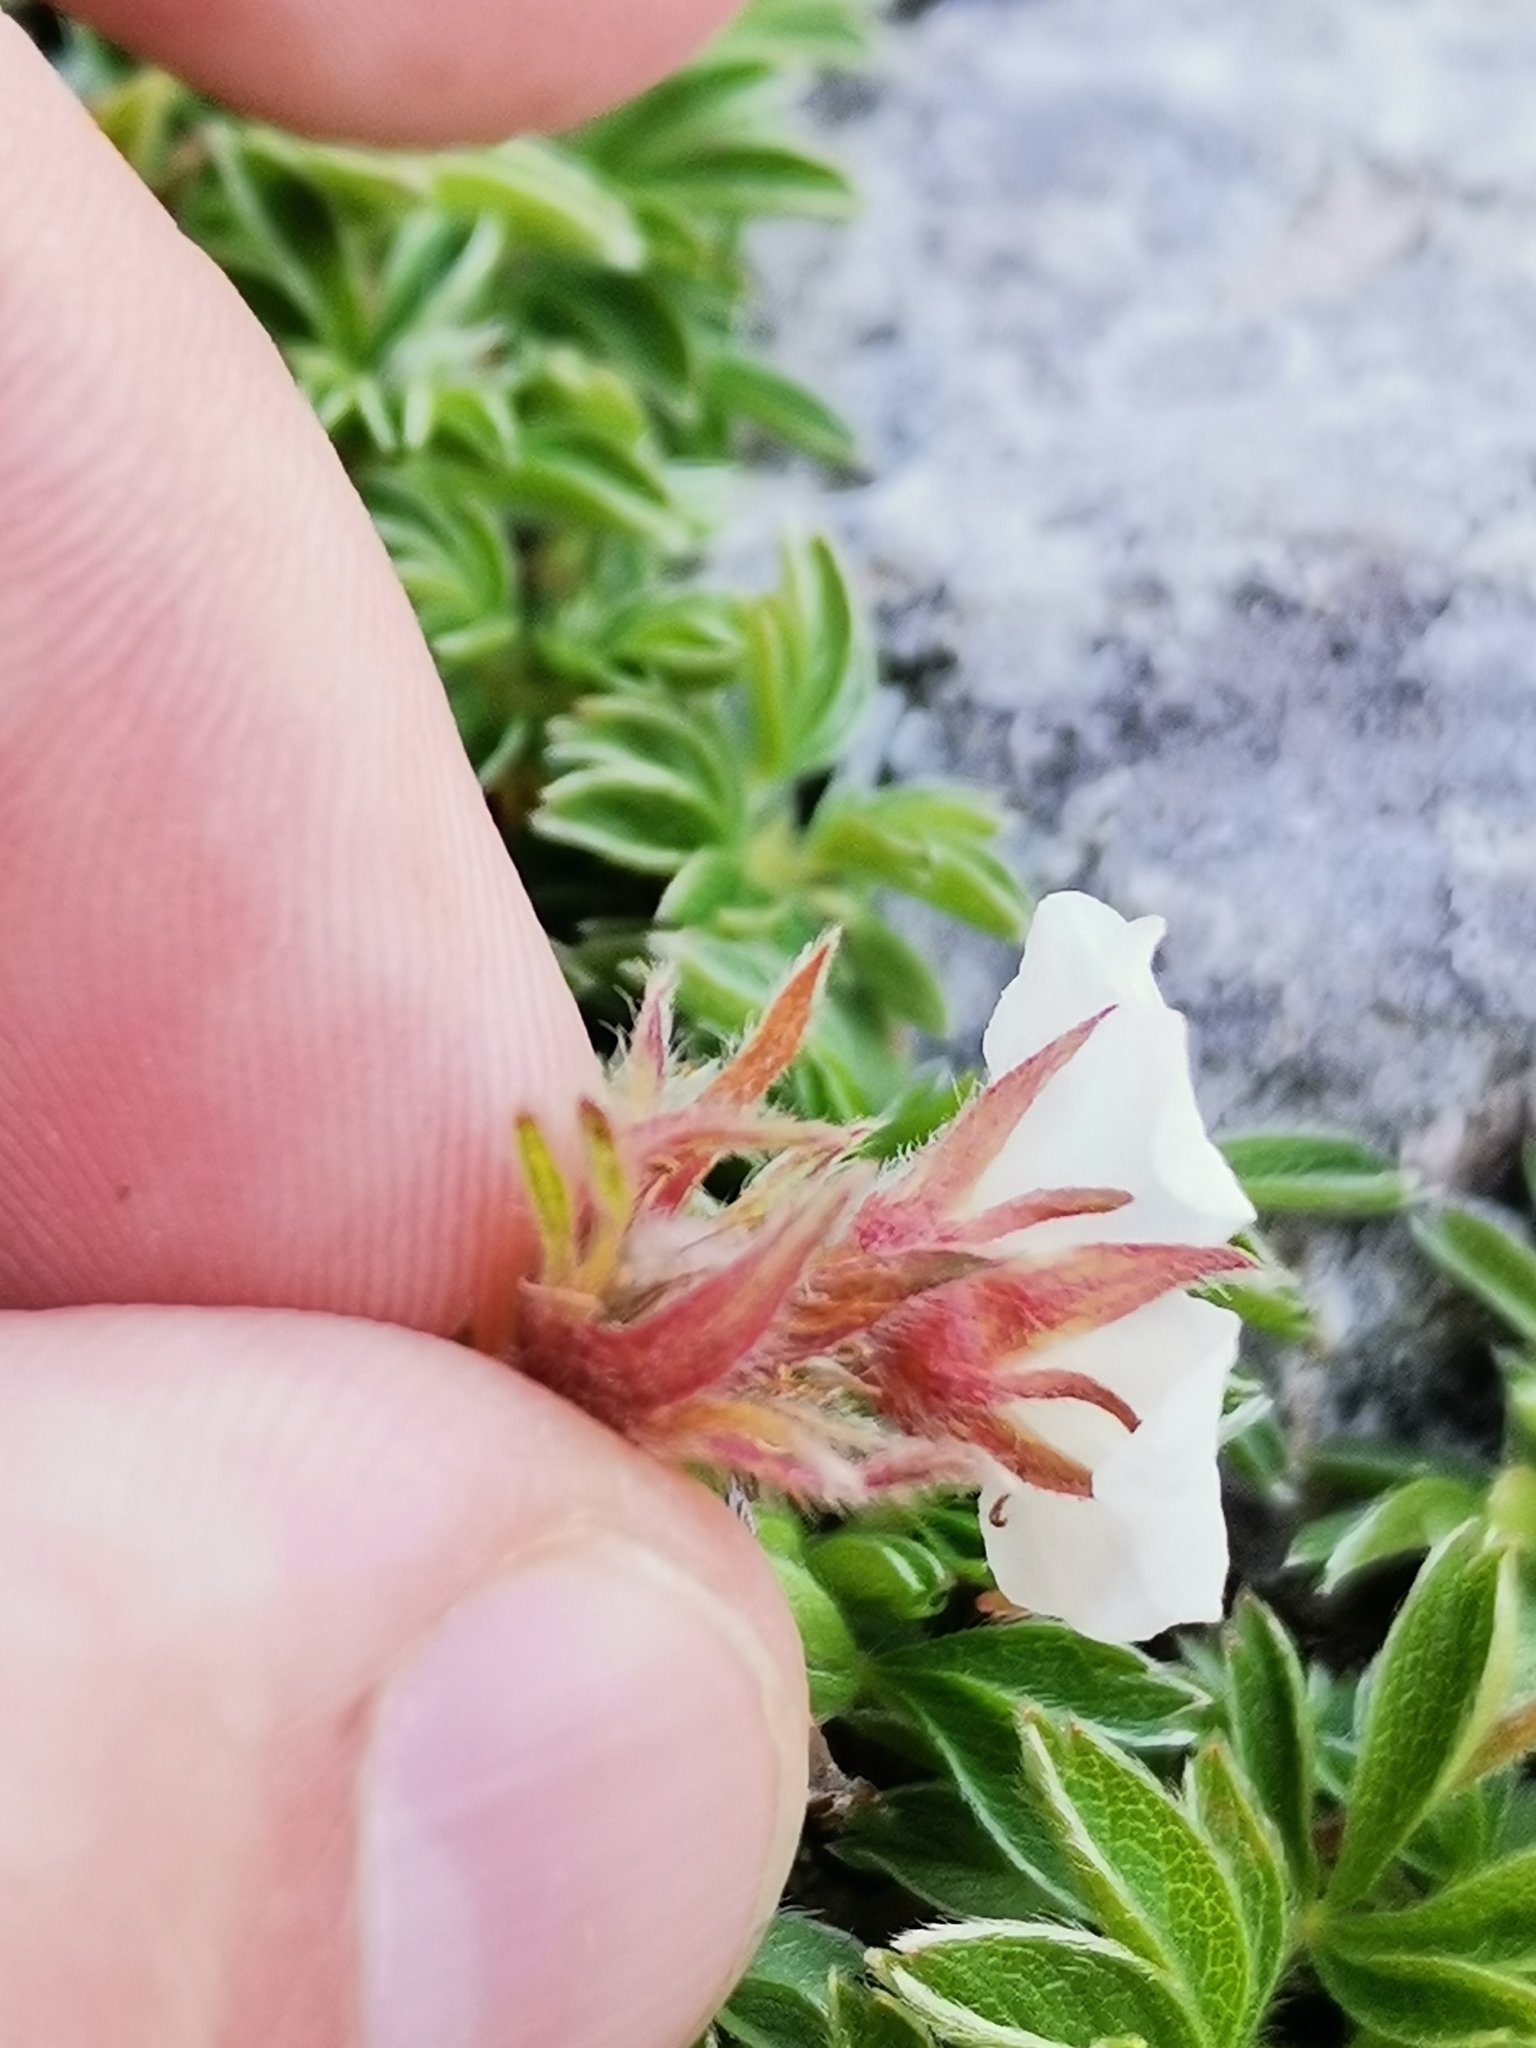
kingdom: Plantae
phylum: Tracheophyta
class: Magnoliopsida
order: Rosales
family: Rosaceae
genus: Potentilla
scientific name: Potentilla clusiana
